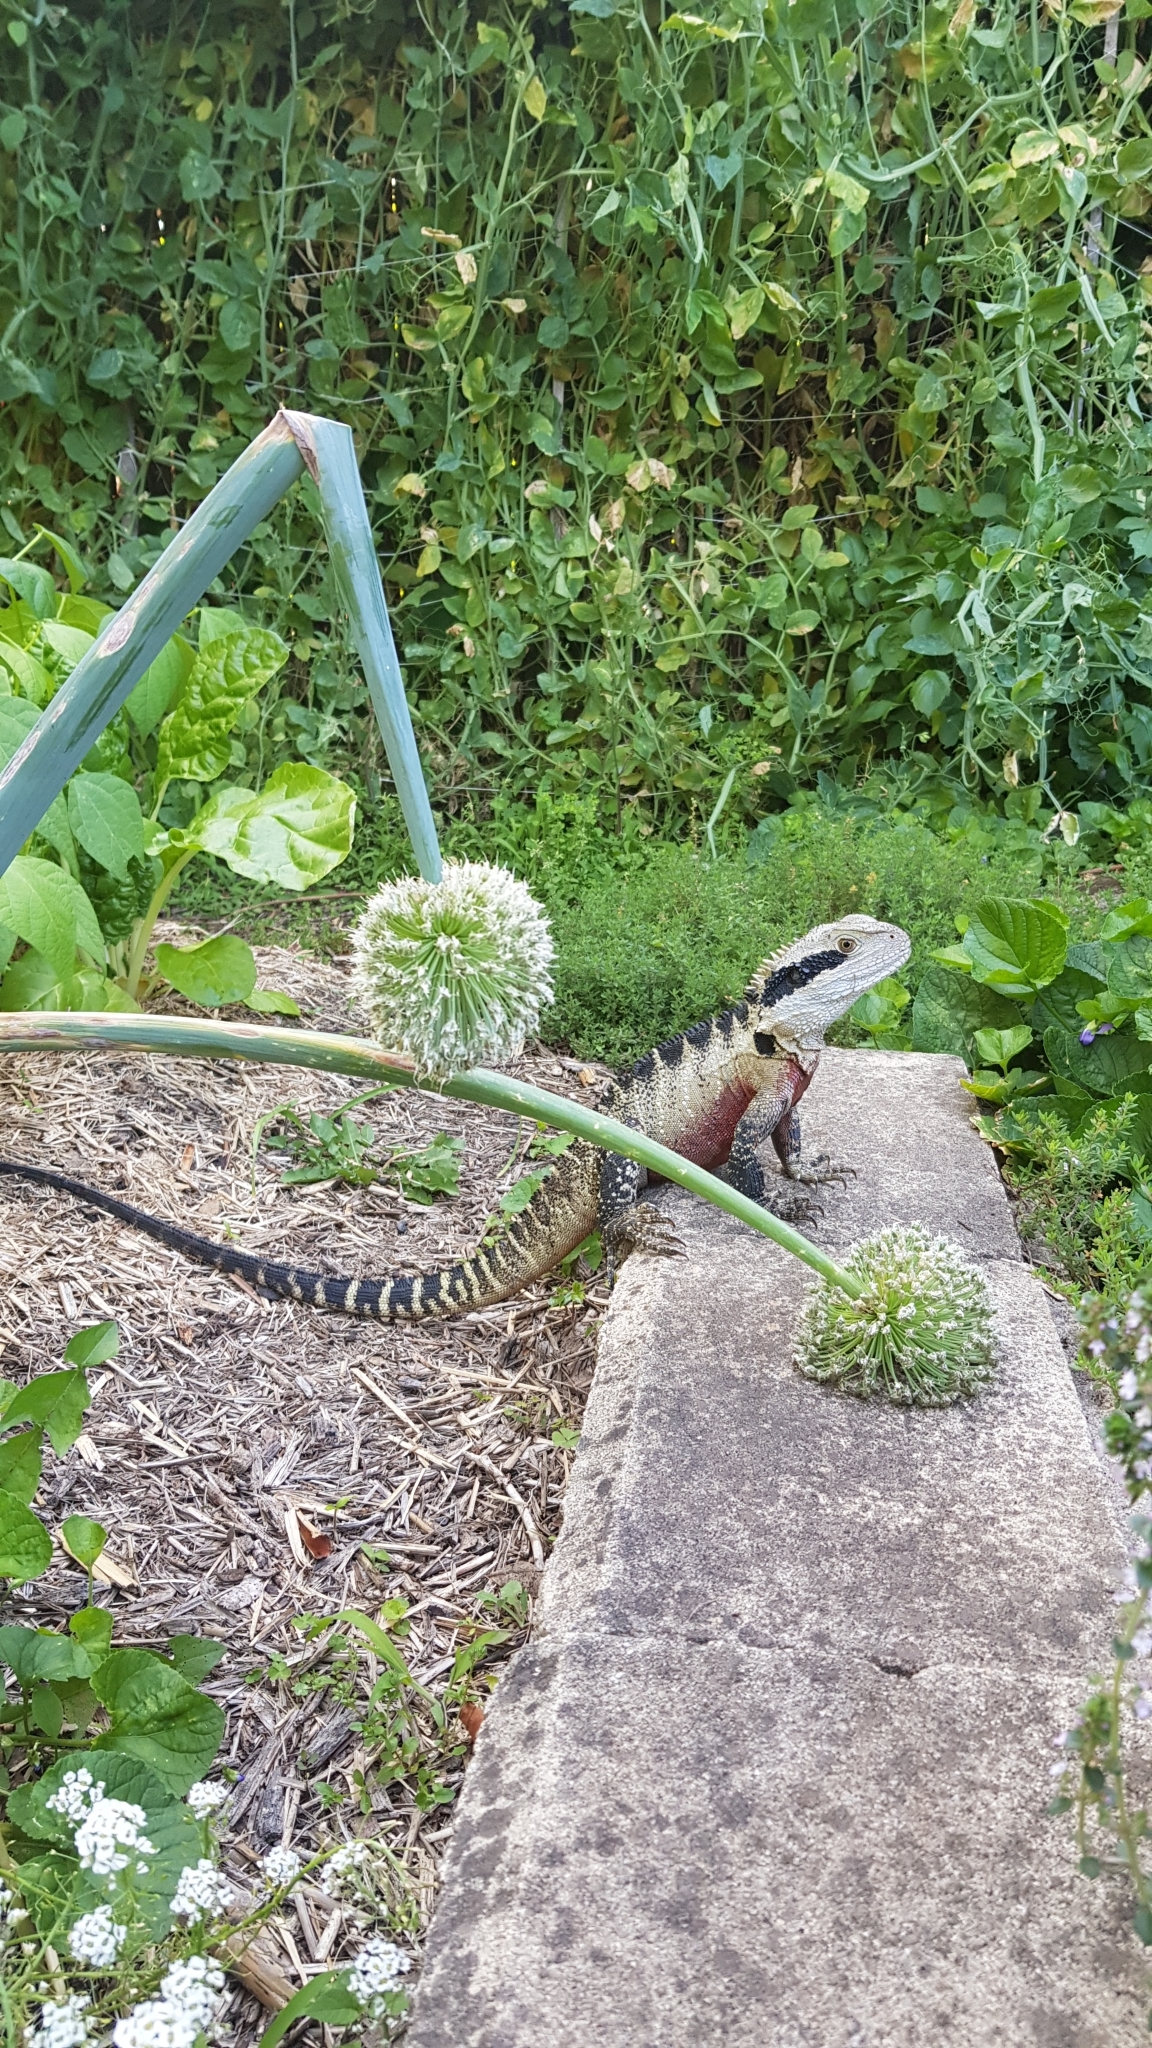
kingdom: Animalia
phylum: Chordata
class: Squamata
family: Agamidae
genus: Intellagama
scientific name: Intellagama lesueurii
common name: Eastern water dragon
